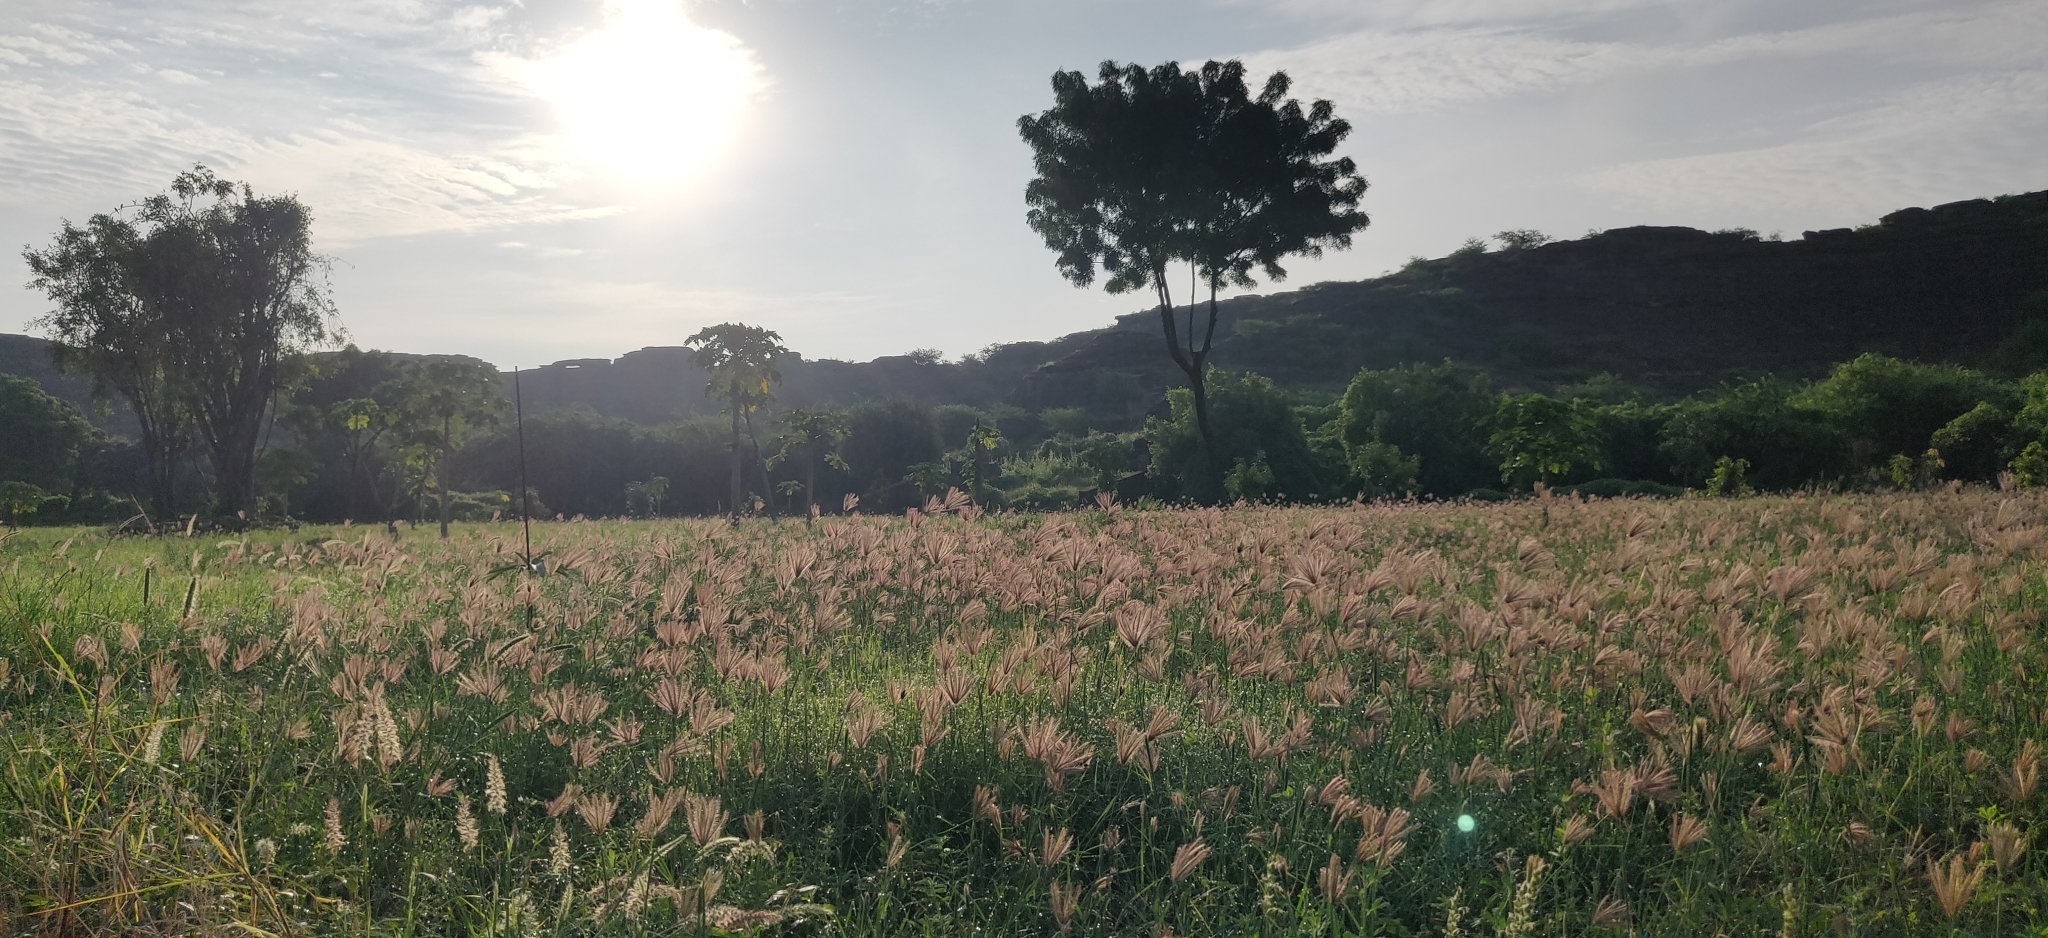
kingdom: Plantae
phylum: Tracheophyta
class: Liliopsida
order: Poales
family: Poaceae
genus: Chloris
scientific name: Chloris barbata
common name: Swollen fingergrass
